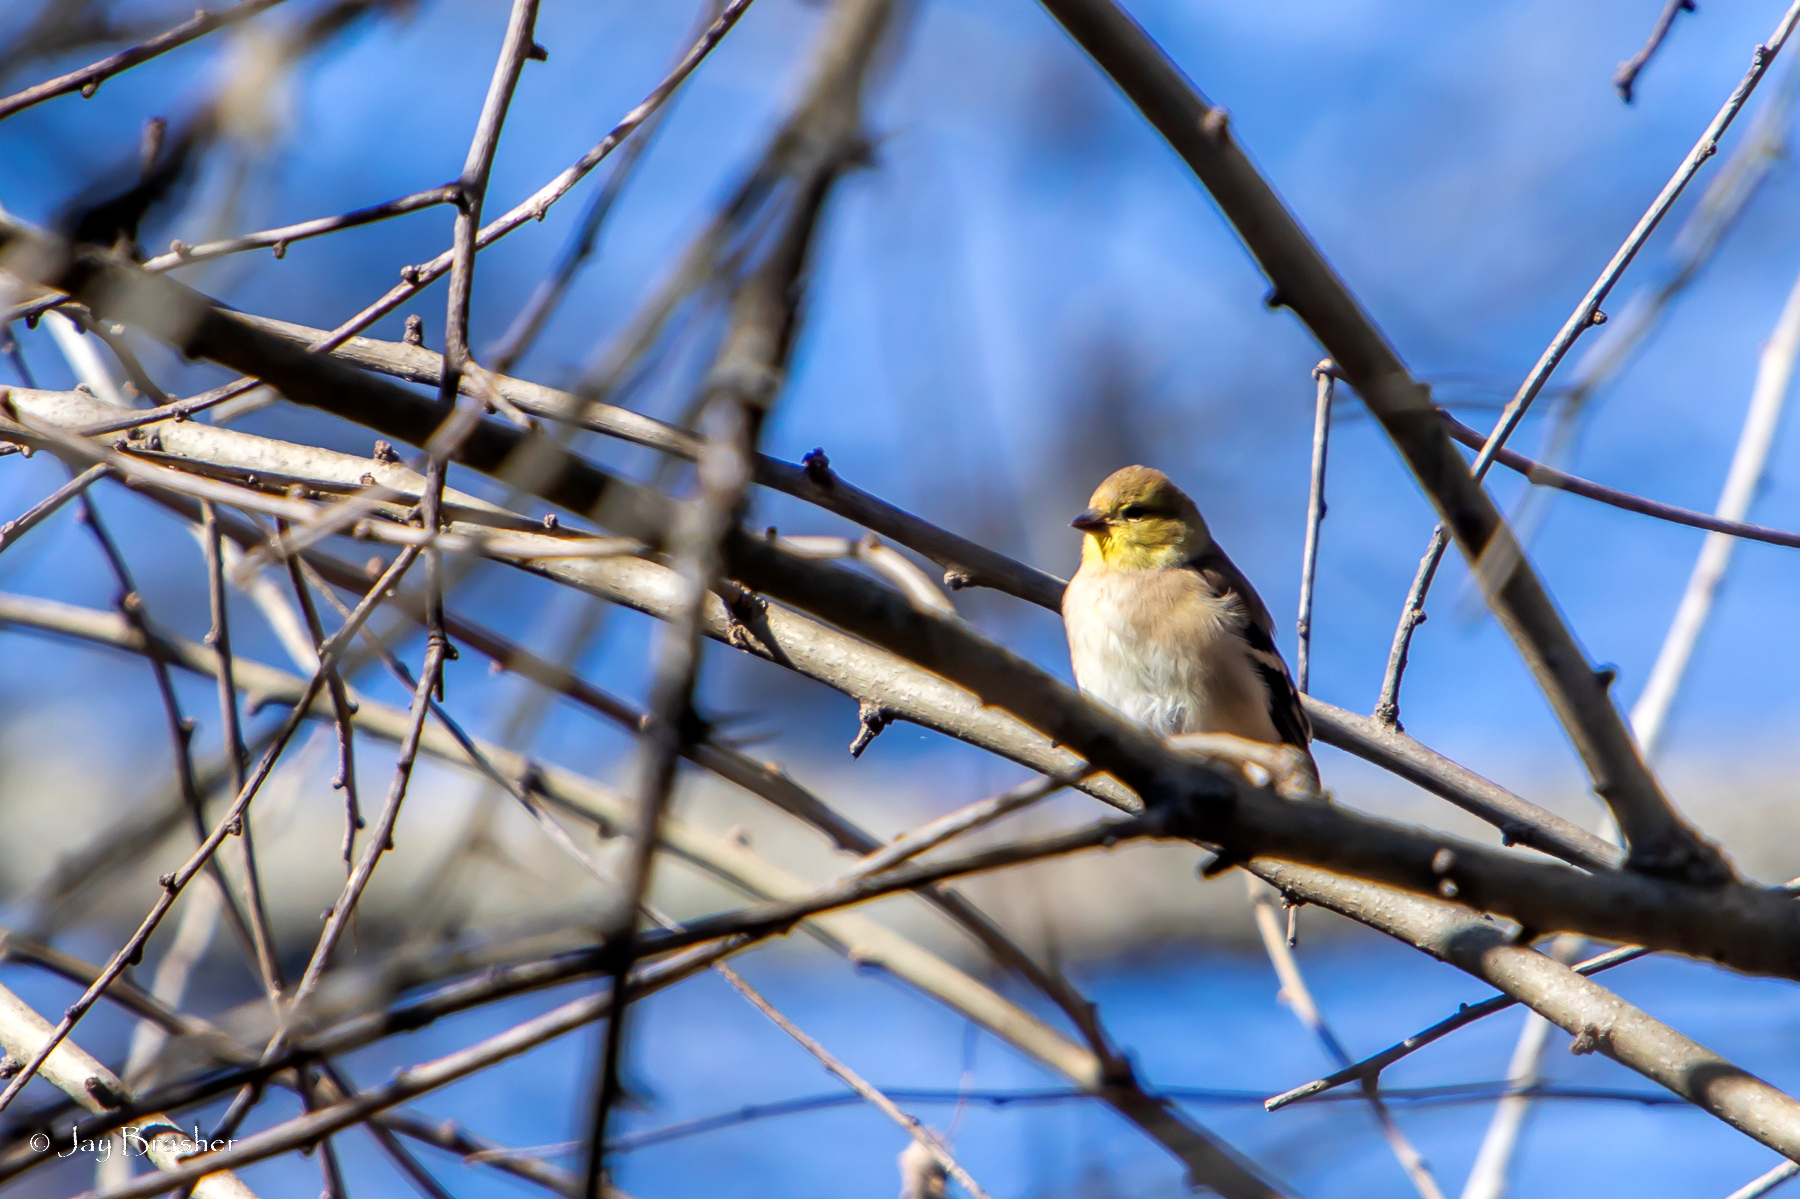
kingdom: Animalia
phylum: Chordata
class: Aves
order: Passeriformes
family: Fringillidae
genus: Spinus
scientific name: Spinus tristis
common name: American goldfinch
